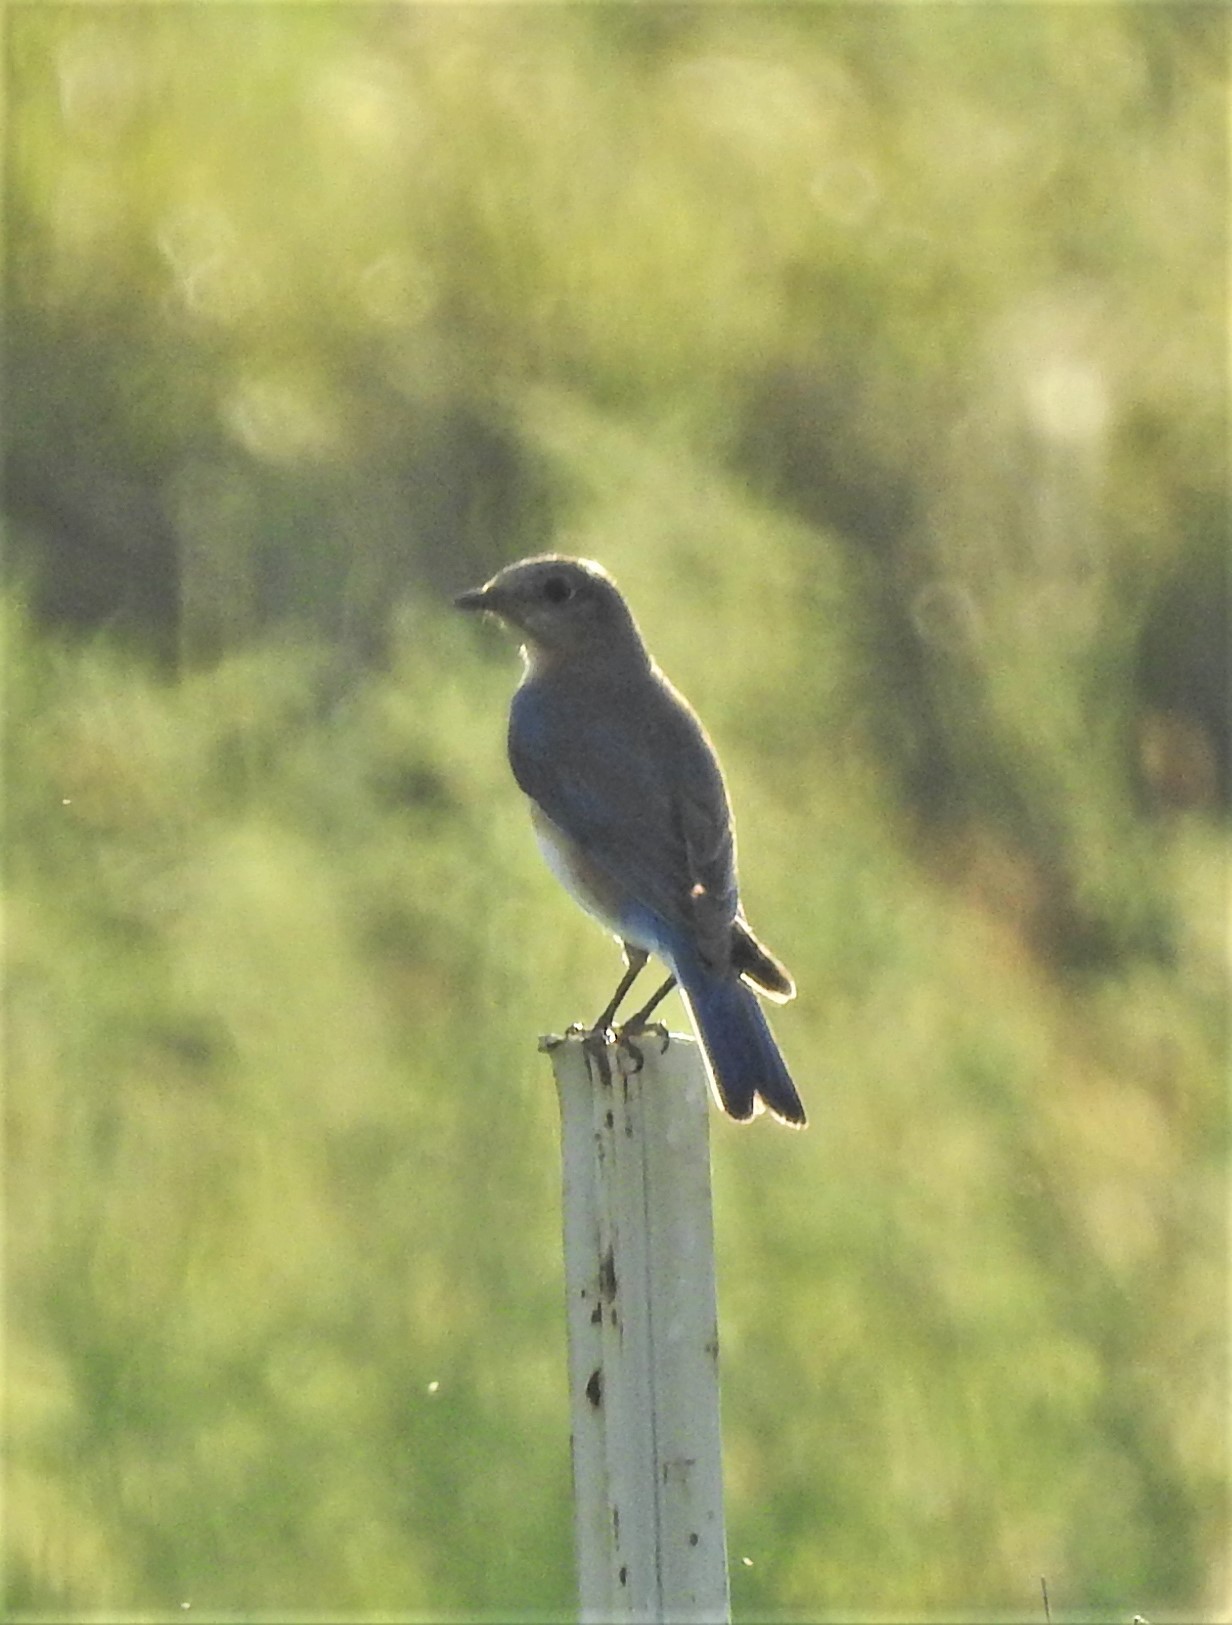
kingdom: Animalia
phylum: Chordata
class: Aves
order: Passeriformes
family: Turdidae
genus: Sialia
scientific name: Sialia sialis
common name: Eastern bluebird
